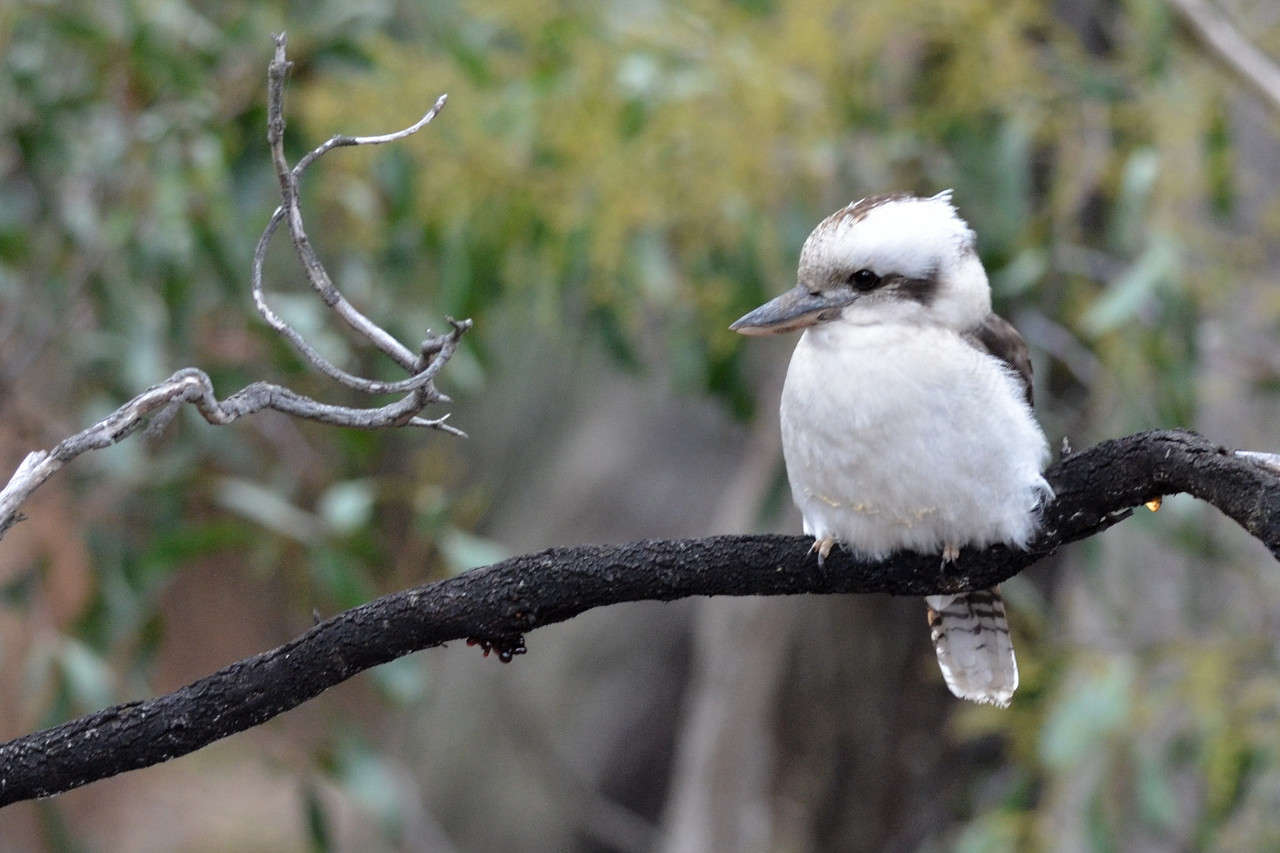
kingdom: Animalia
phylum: Chordata
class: Aves
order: Coraciiformes
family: Alcedinidae
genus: Dacelo
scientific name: Dacelo novaeguineae
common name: Laughing kookaburra
